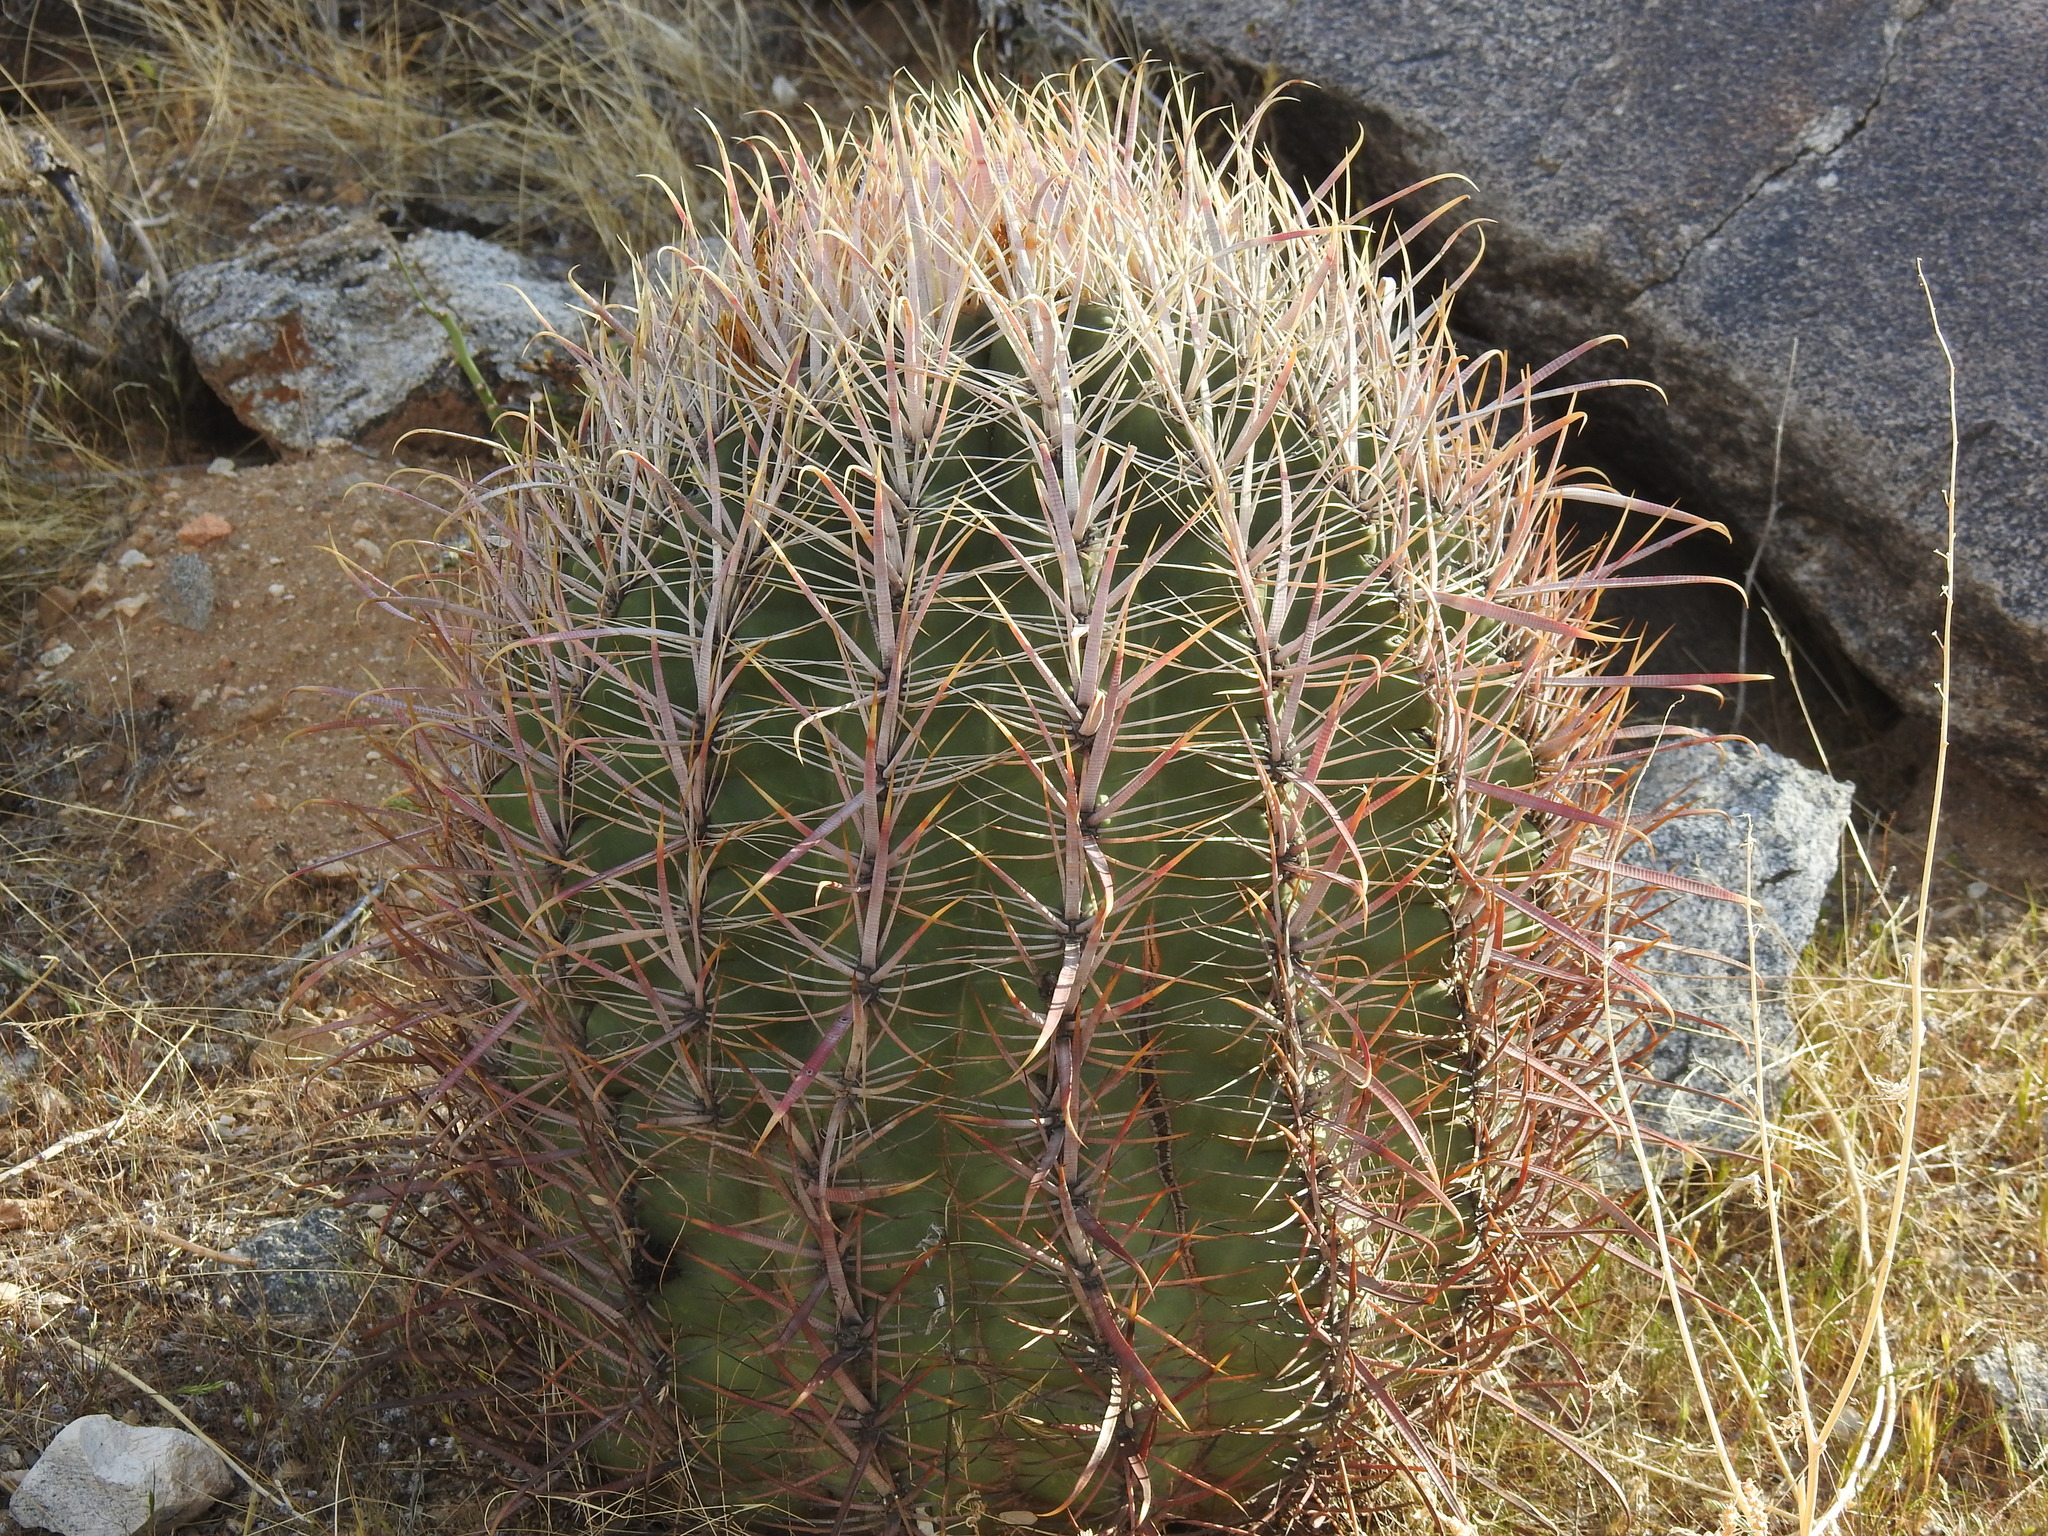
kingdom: Plantae
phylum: Tracheophyta
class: Magnoliopsida
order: Caryophyllales
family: Cactaceae
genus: Ferocactus
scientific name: Ferocactus cylindraceus
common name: California barrel cactus
